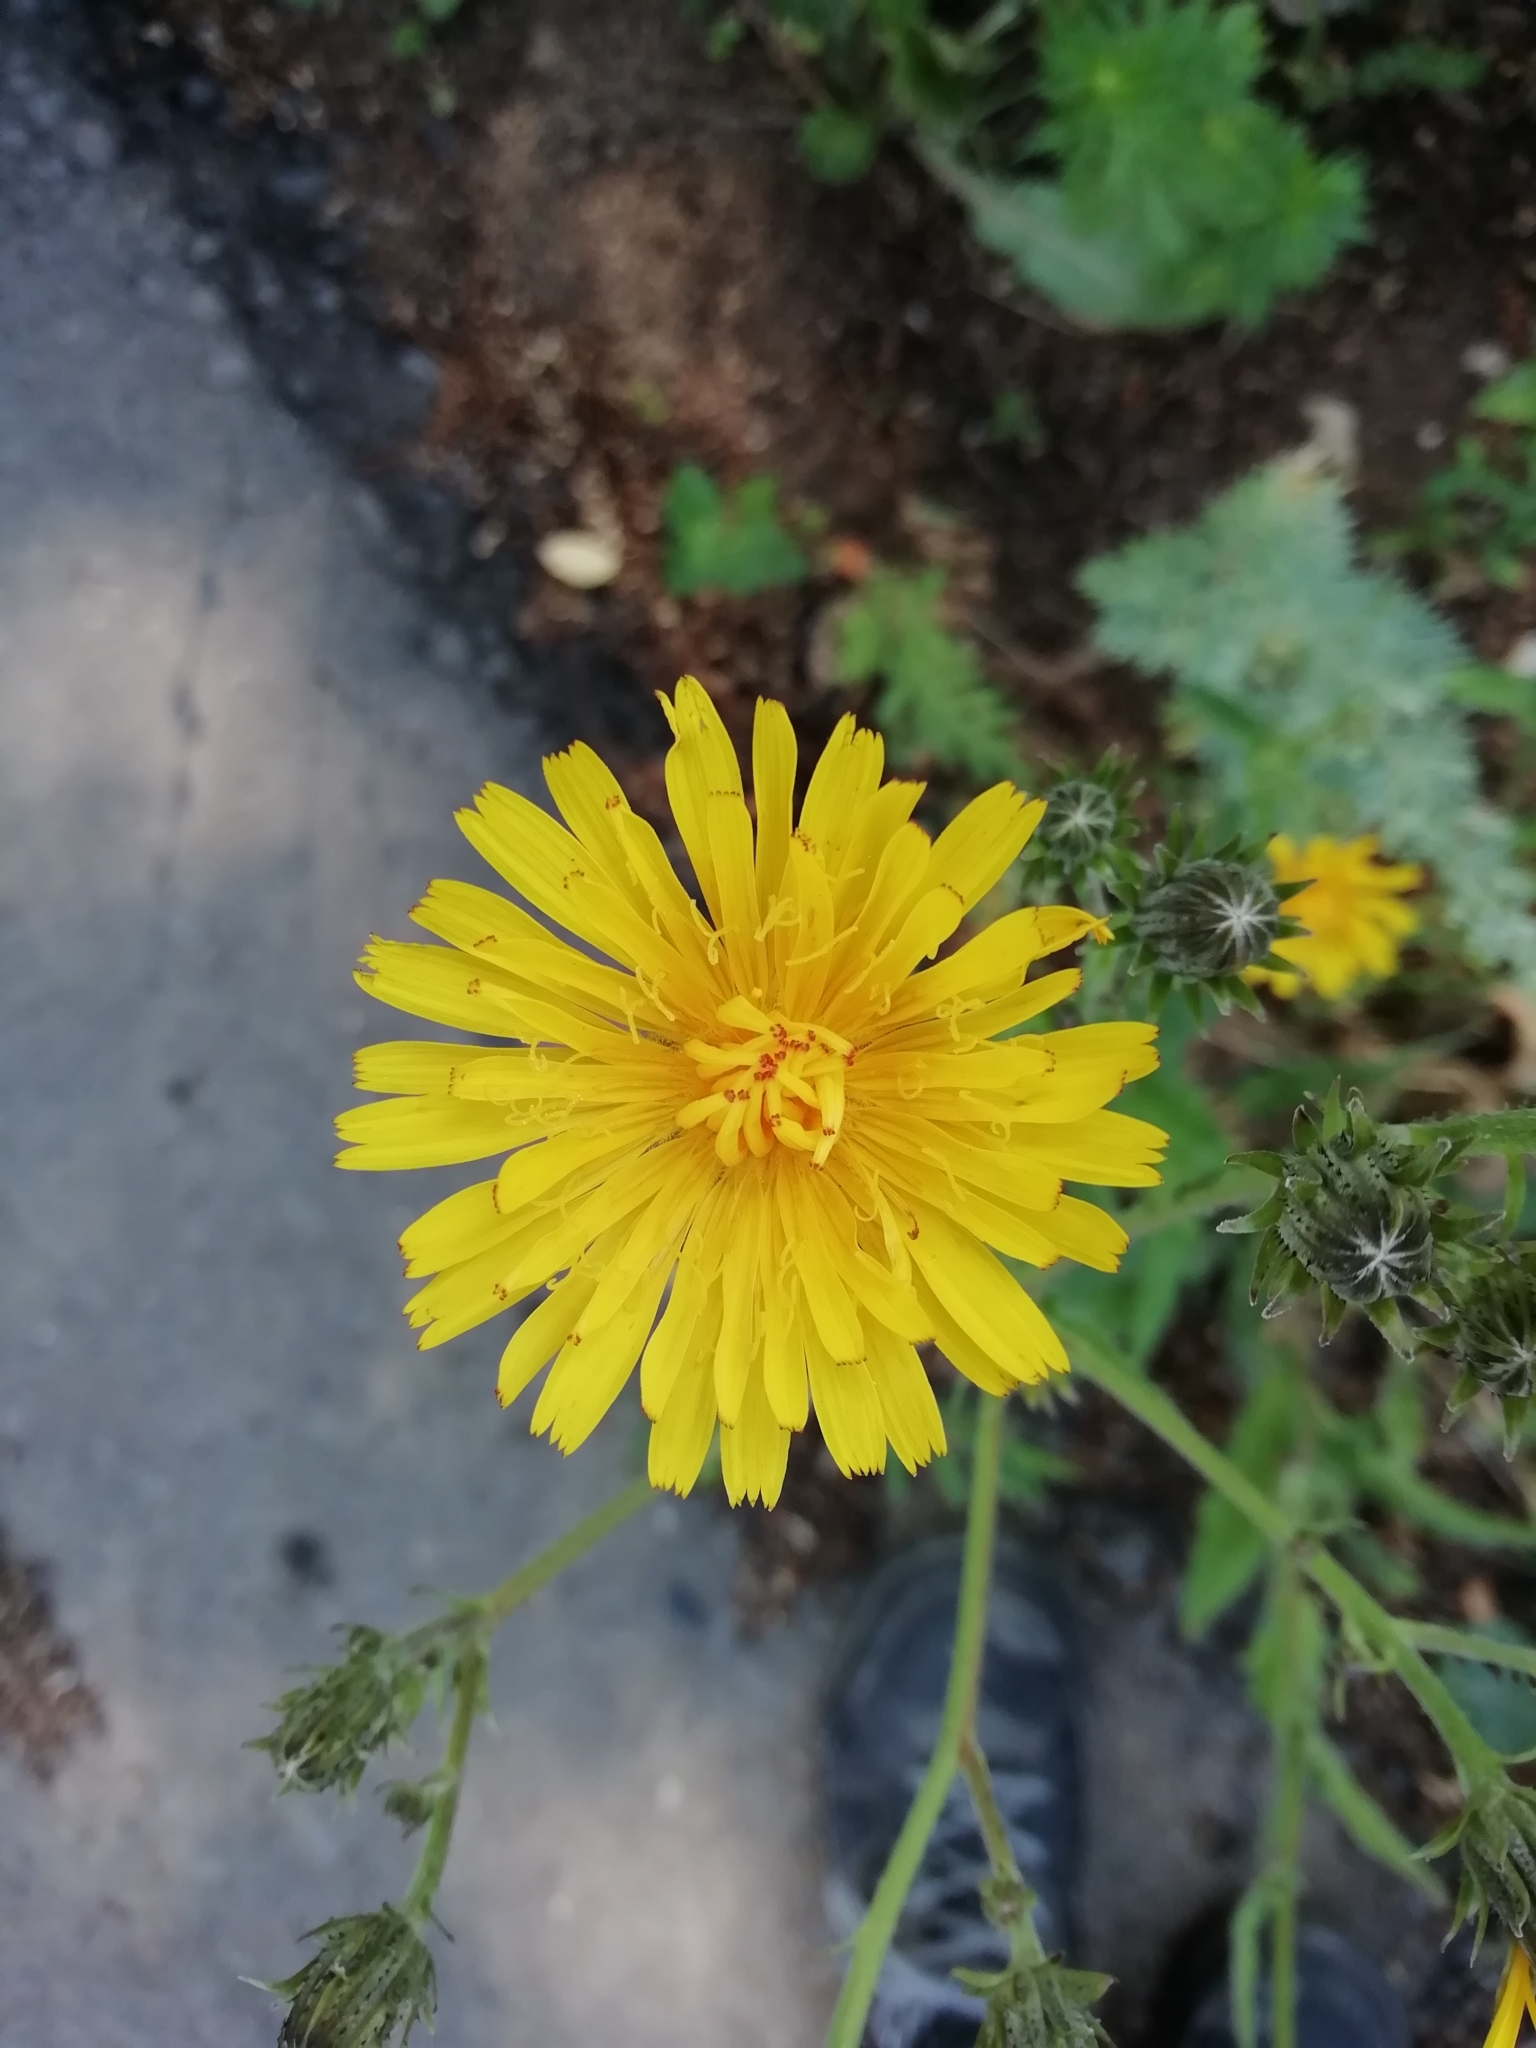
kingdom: Plantae
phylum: Tracheophyta
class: Magnoliopsida
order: Asterales
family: Asteraceae
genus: Picris
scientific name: Picris hieracioides
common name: Hawkweed oxtongue
